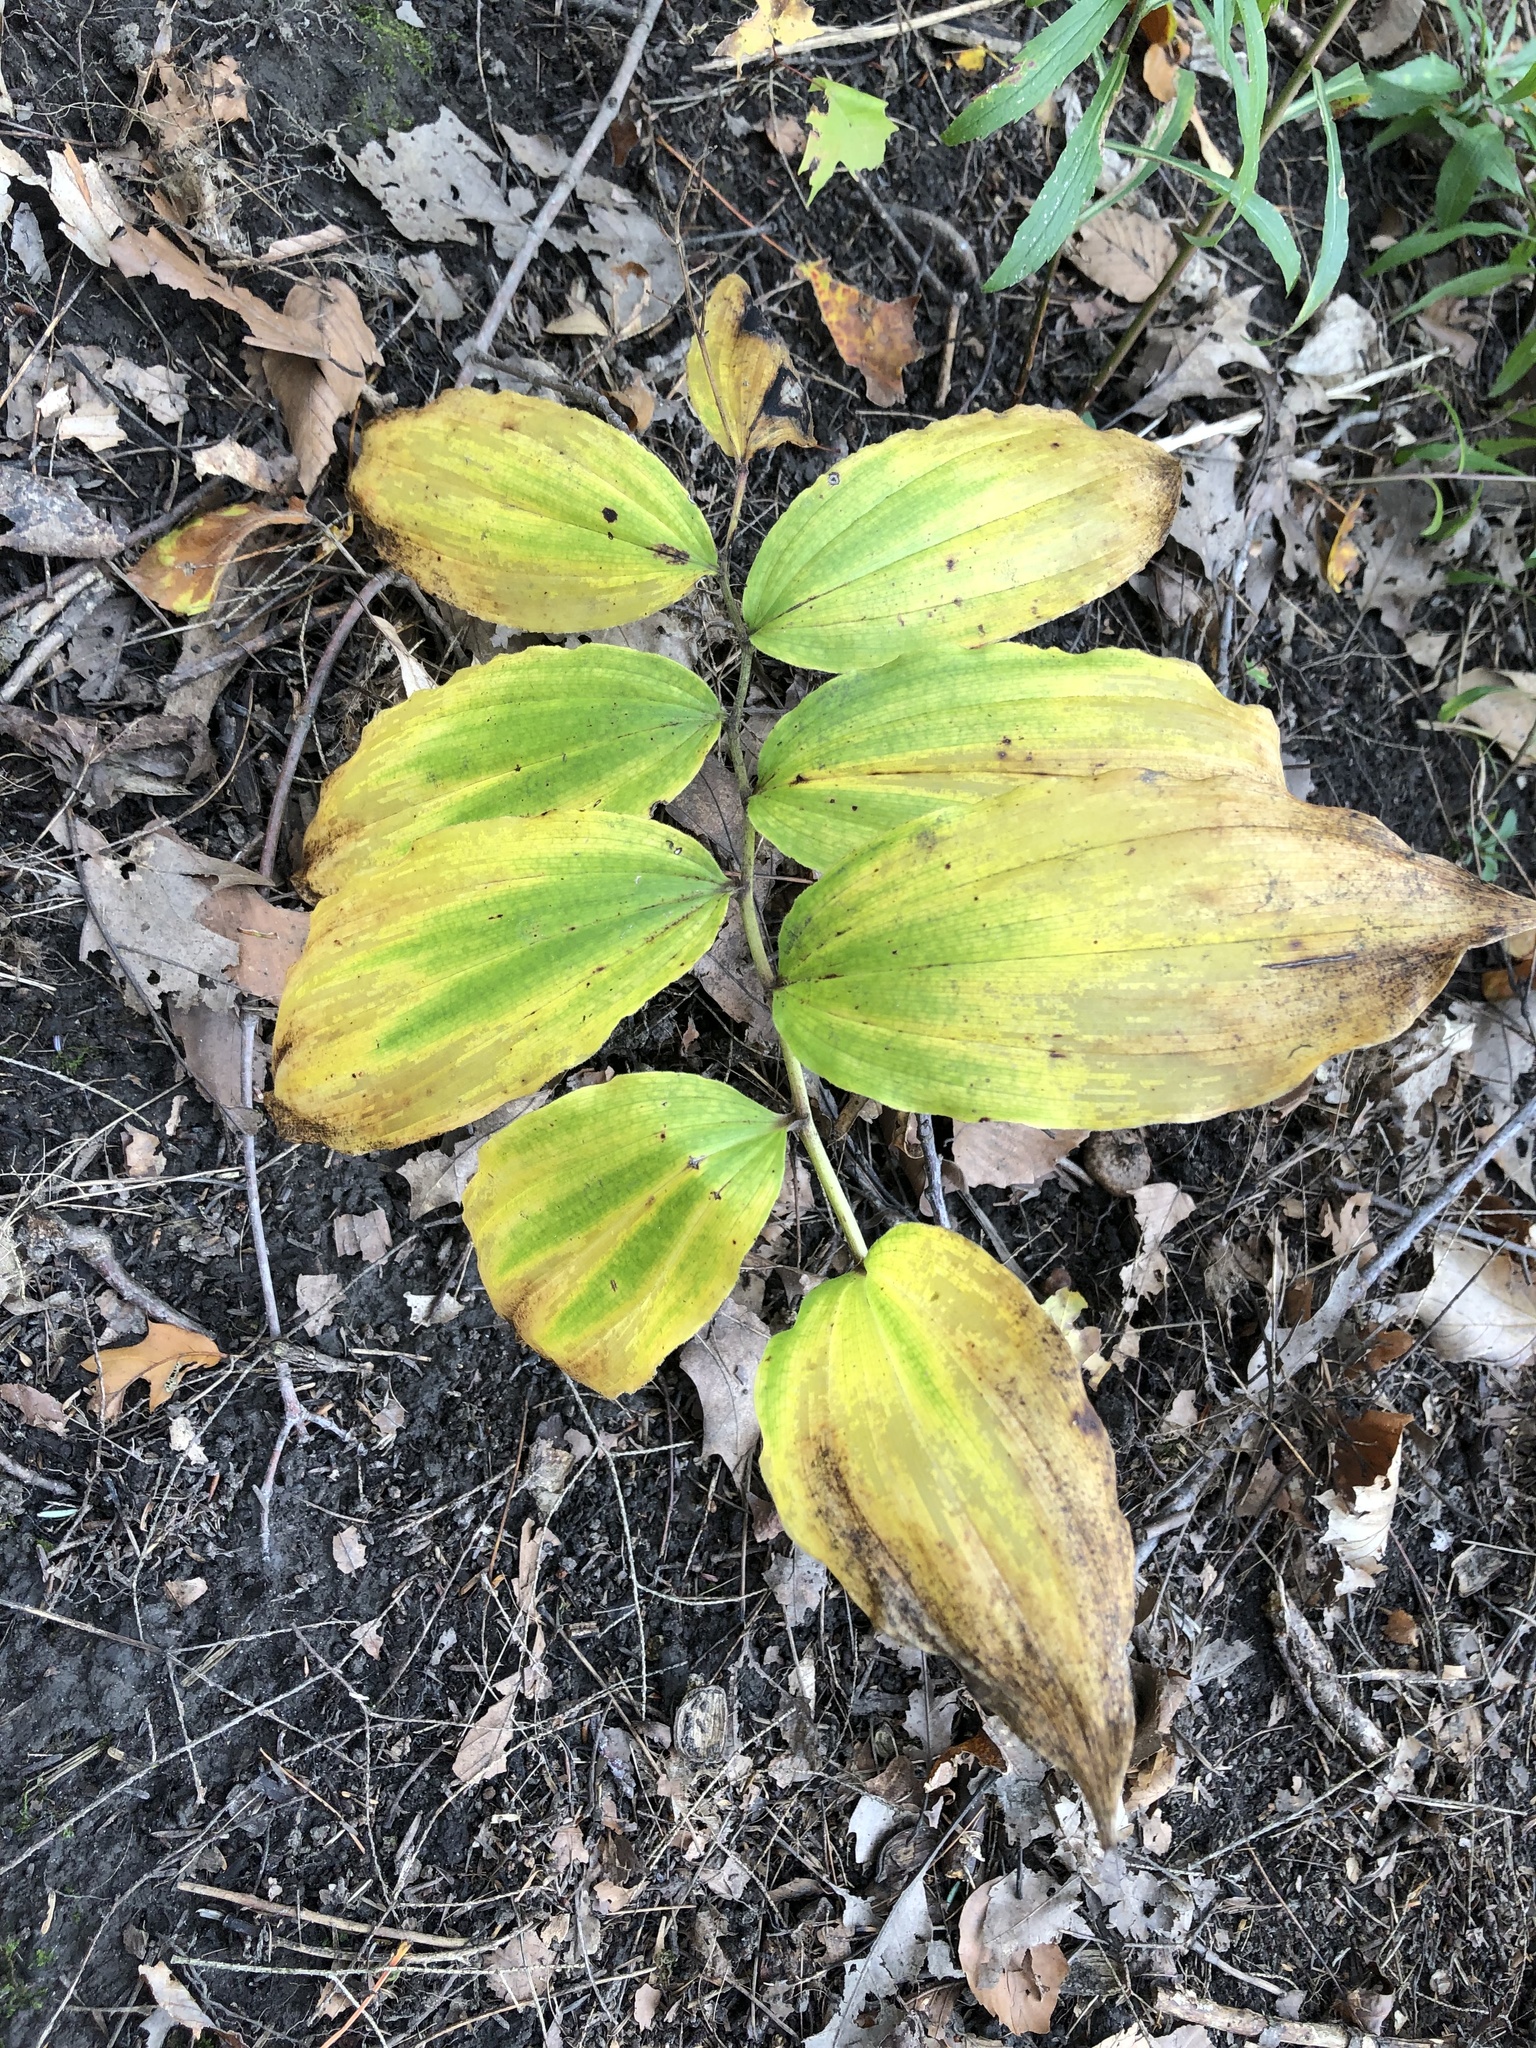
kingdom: Plantae
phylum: Tracheophyta
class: Liliopsida
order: Asparagales
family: Asparagaceae
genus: Maianthemum
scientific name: Maianthemum racemosum
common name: False spikenard
